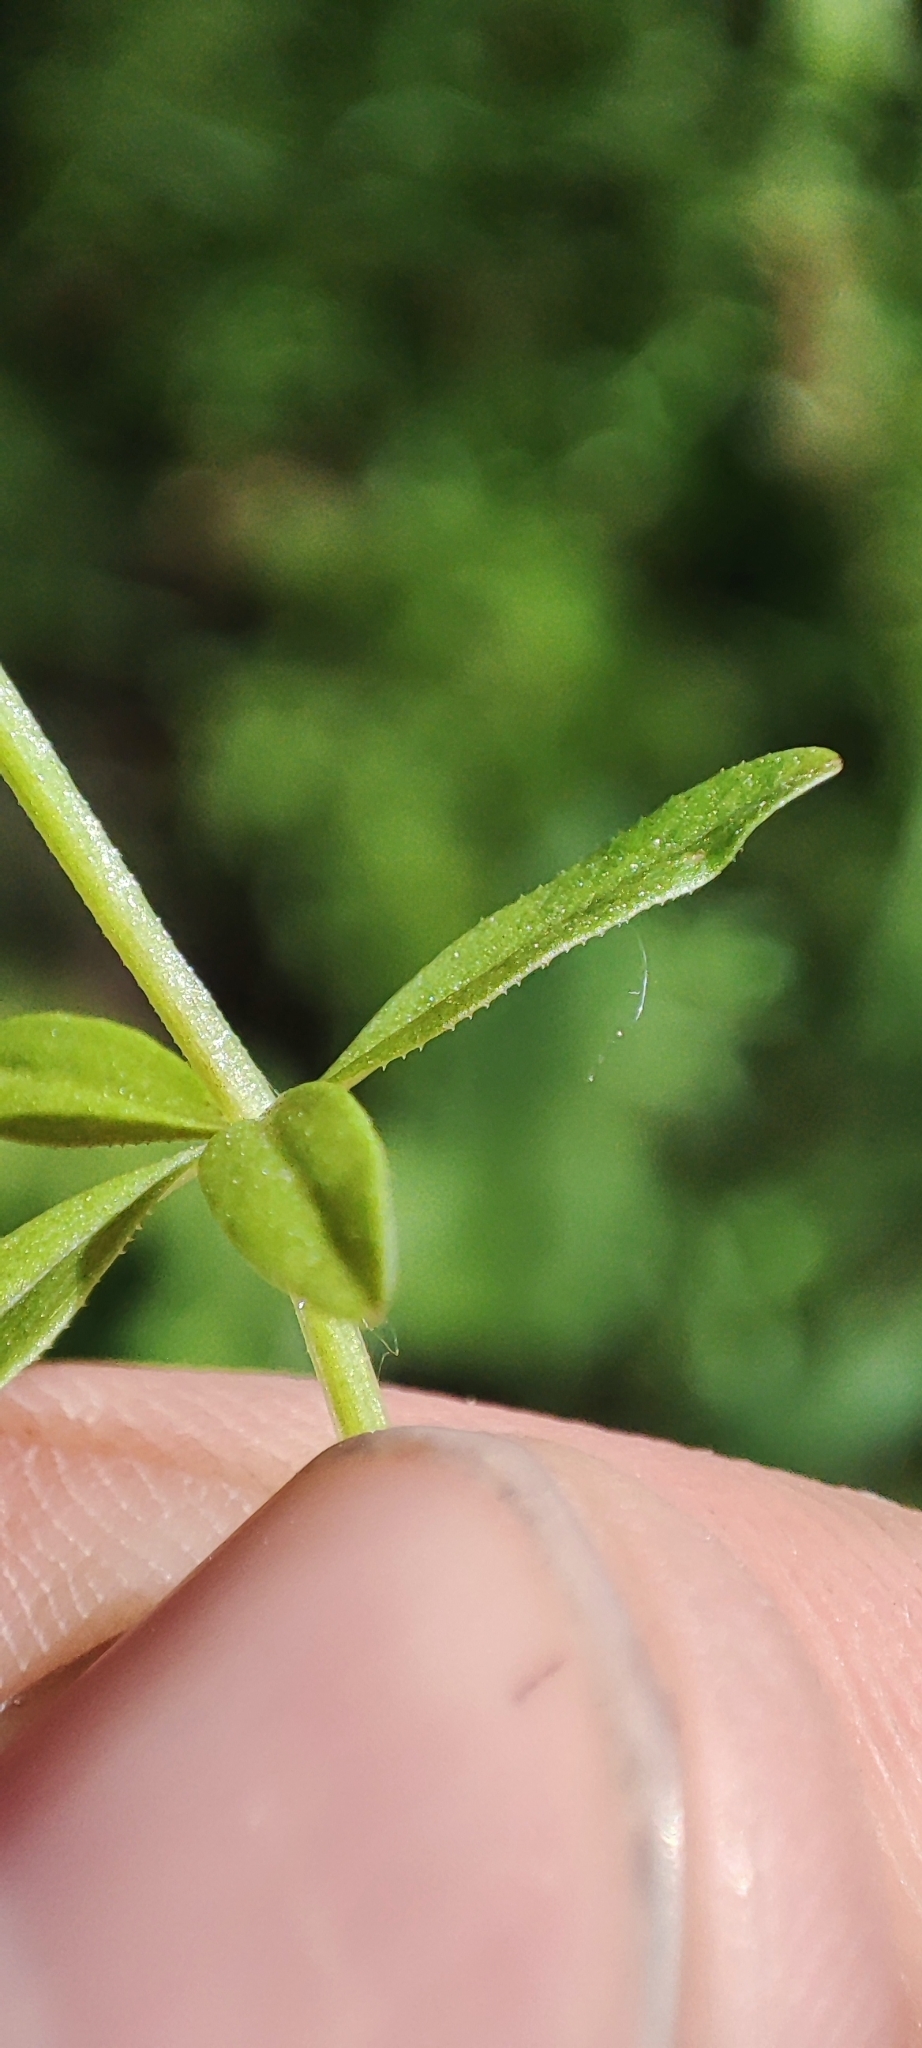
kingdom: Plantae
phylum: Tracheophyta
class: Magnoliopsida
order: Gentianales
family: Rubiaceae
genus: Galium
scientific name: Galium palustre
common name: Common marsh-bedstraw
